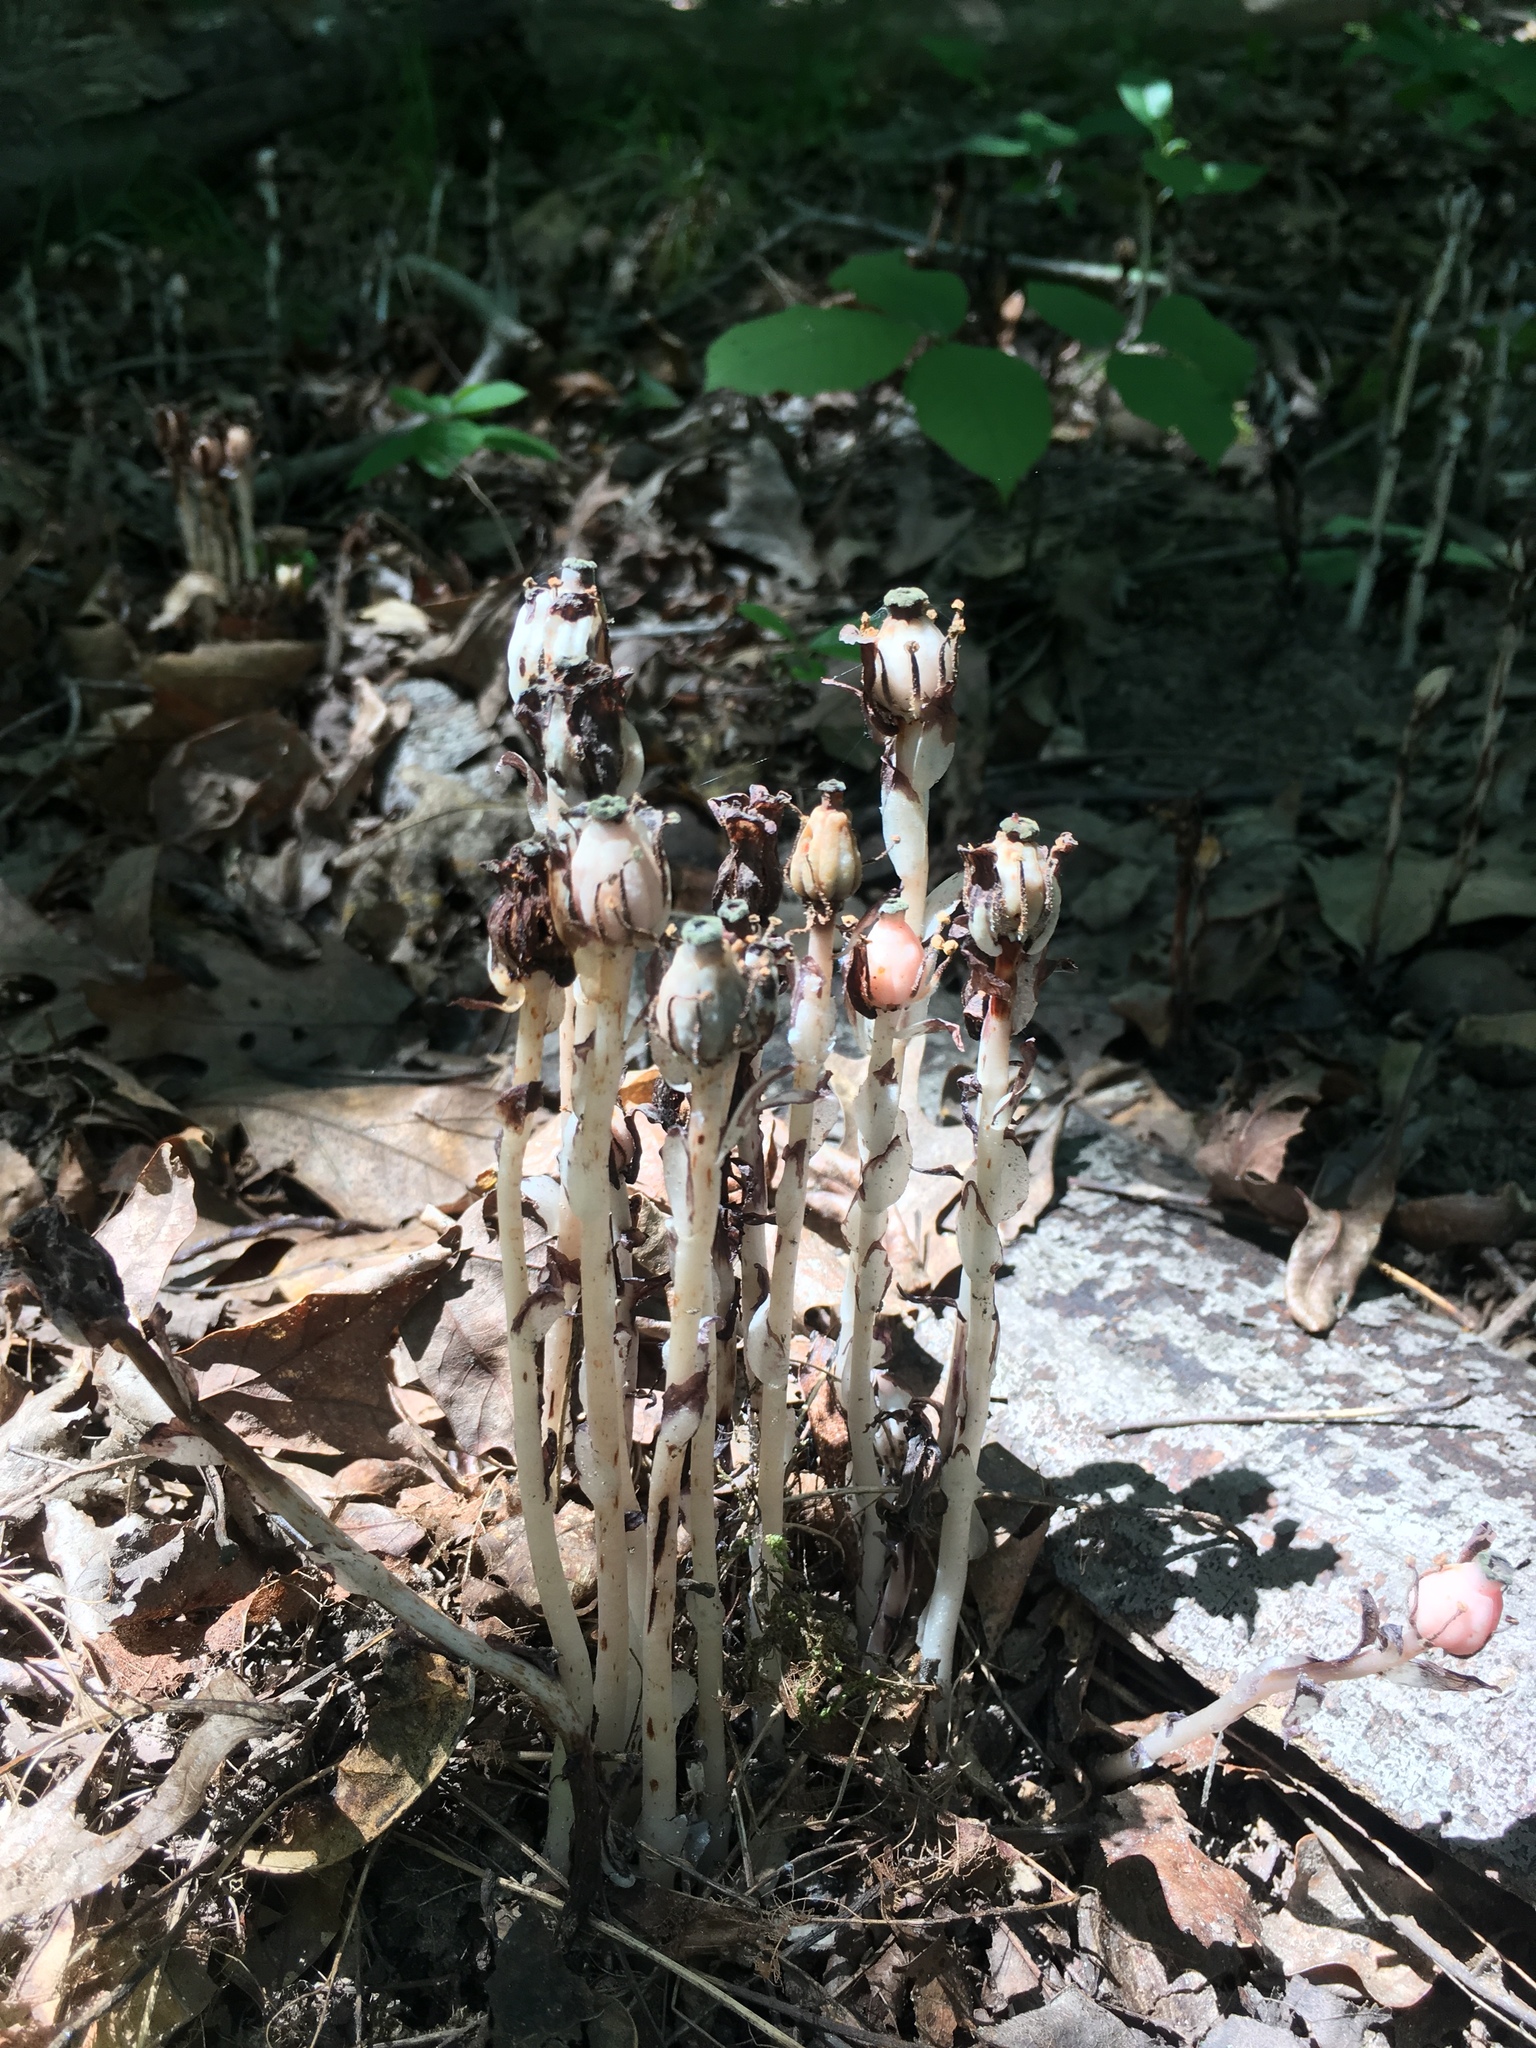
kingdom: Plantae
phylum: Tracheophyta
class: Magnoliopsida
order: Ericales
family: Ericaceae
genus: Monotropa
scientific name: Monotropa uniflora
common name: Convulsion root
